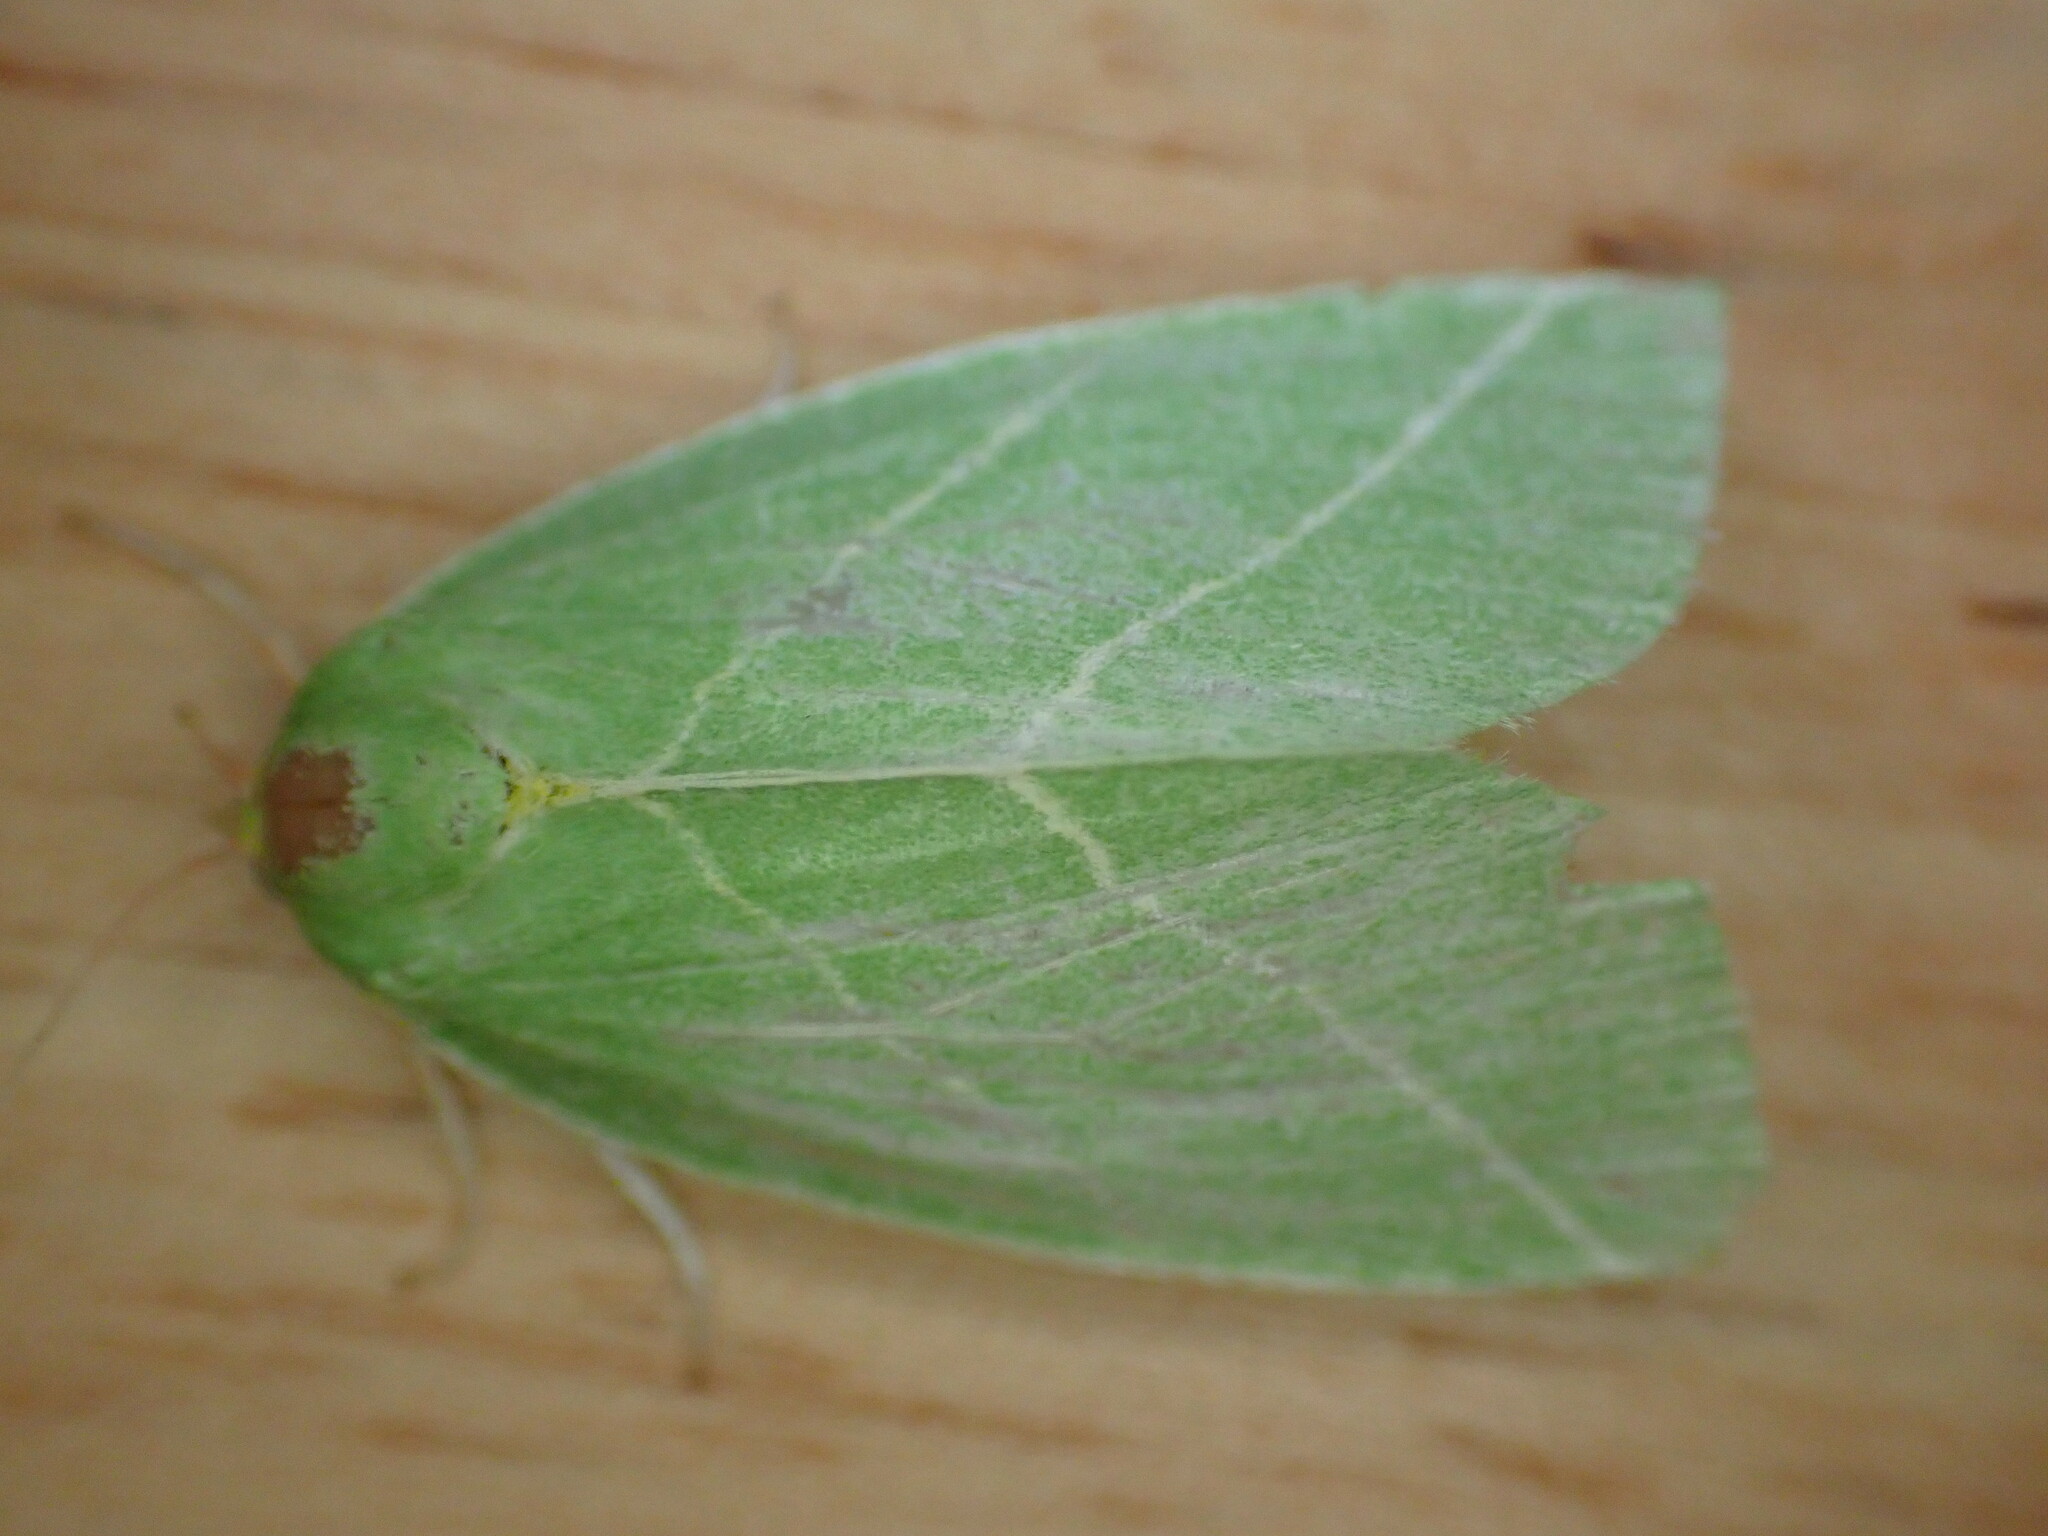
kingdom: Animalia
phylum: Arthropoda
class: Insecta
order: Lepidoptera
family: Nolidae
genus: Bena
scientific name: Bena bicolorana
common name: Scarce silver-lines
